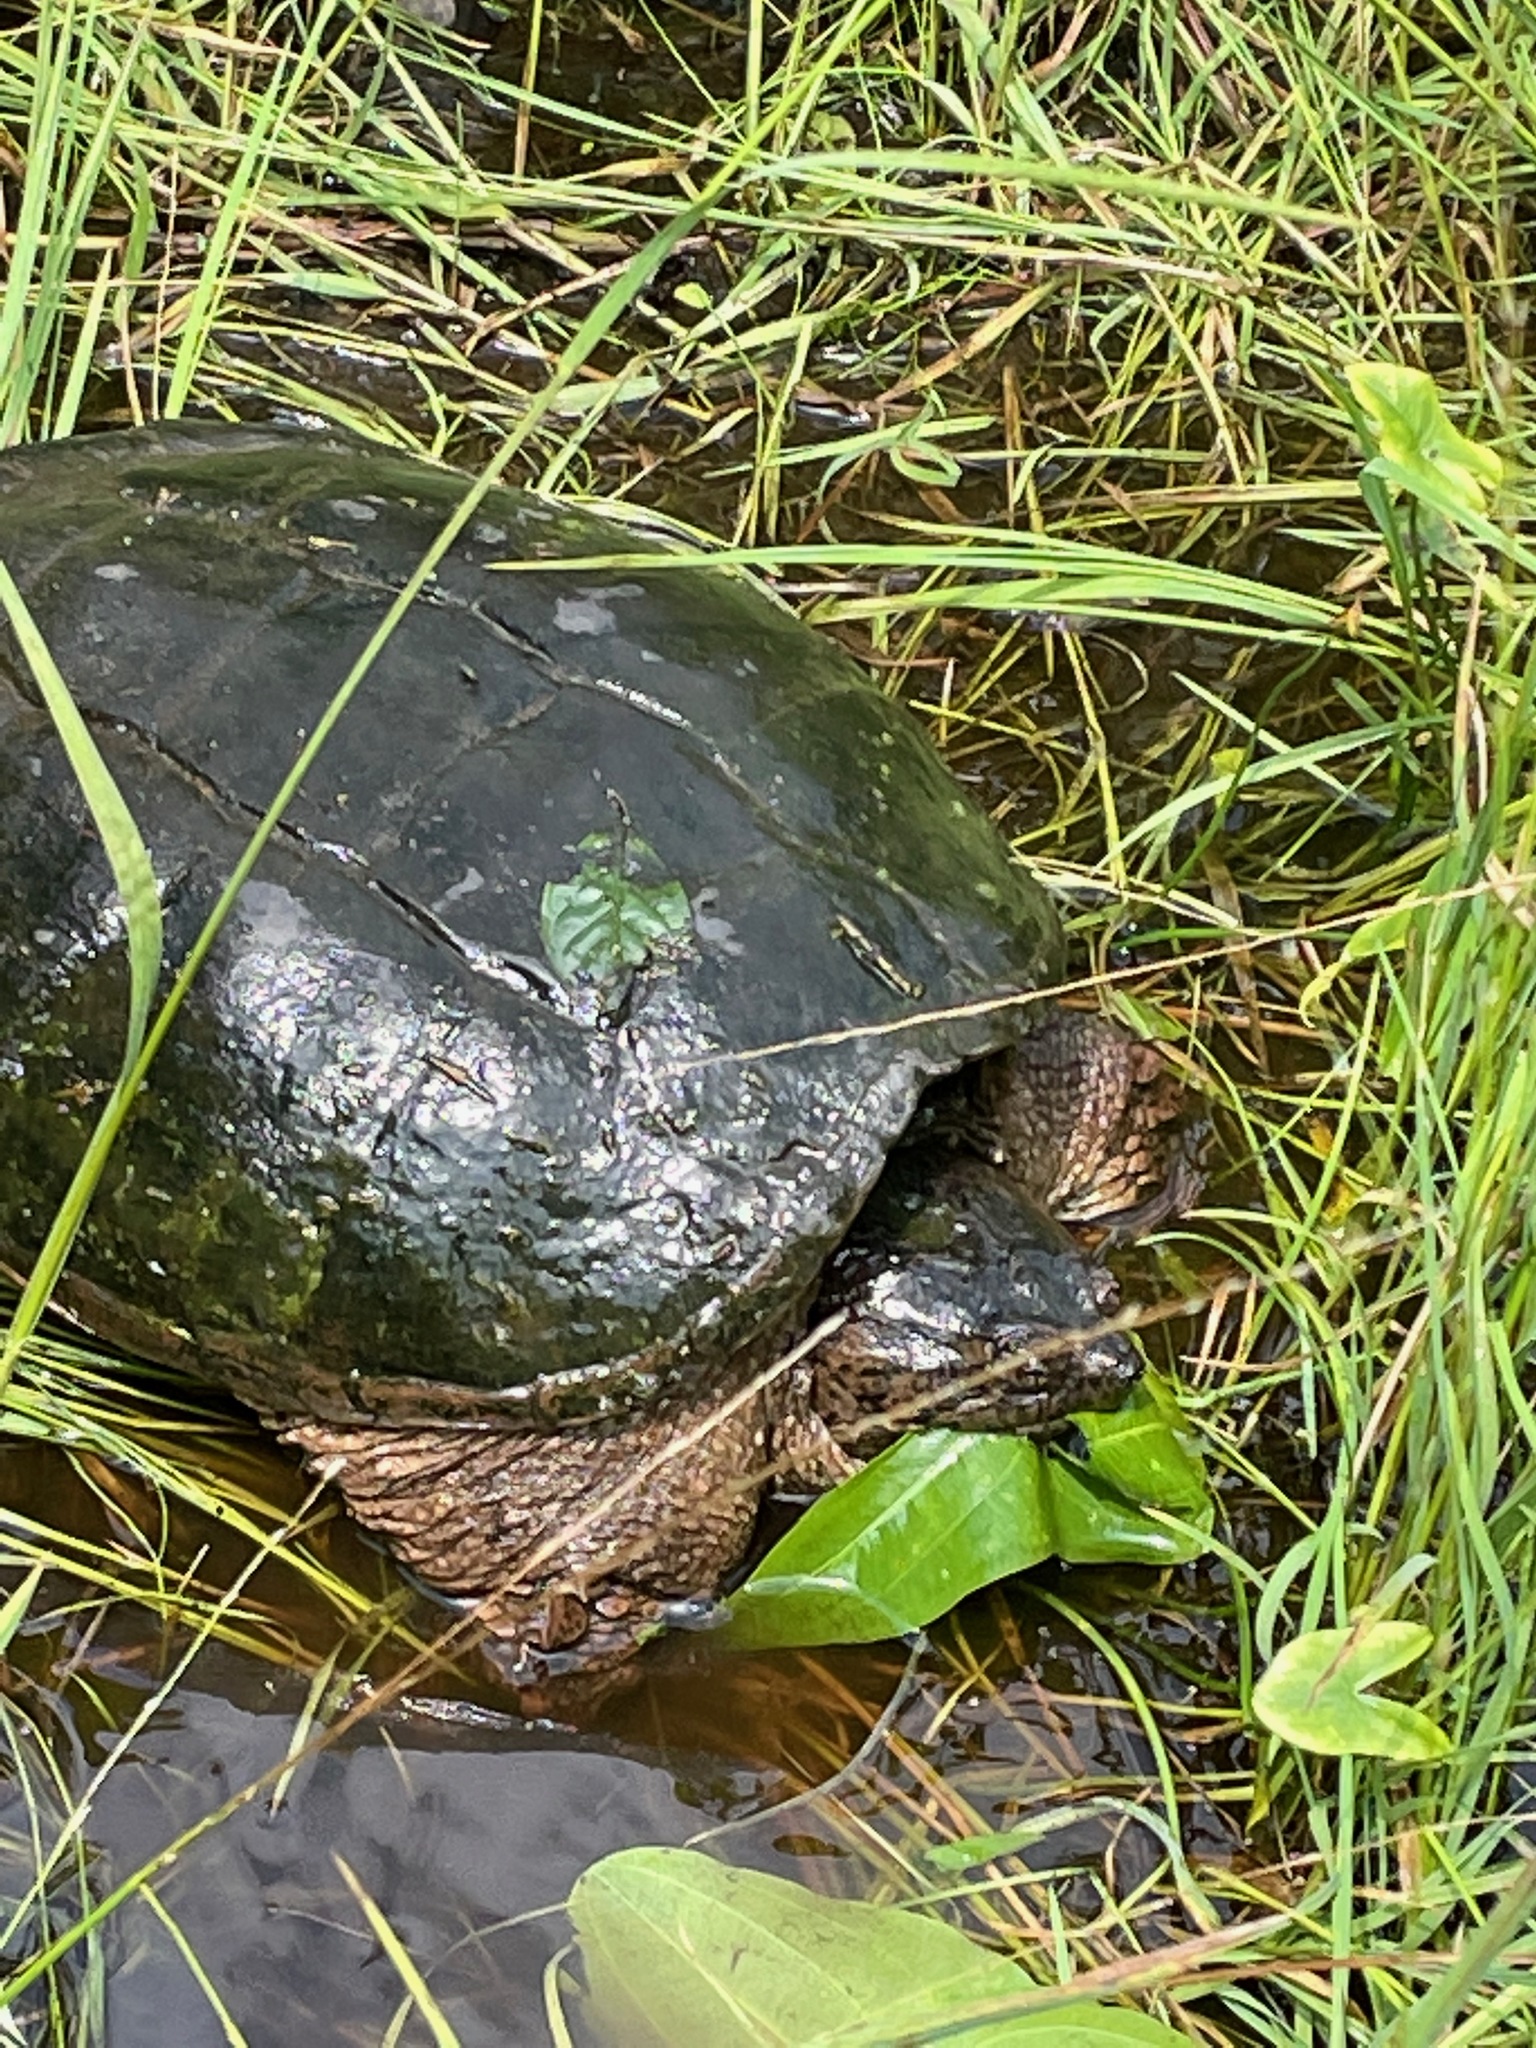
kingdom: Animalia
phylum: Chordata
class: Testudines
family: Chelydridae
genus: Chelydra
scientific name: Chelydra serpentina
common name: Common snapping turtle
